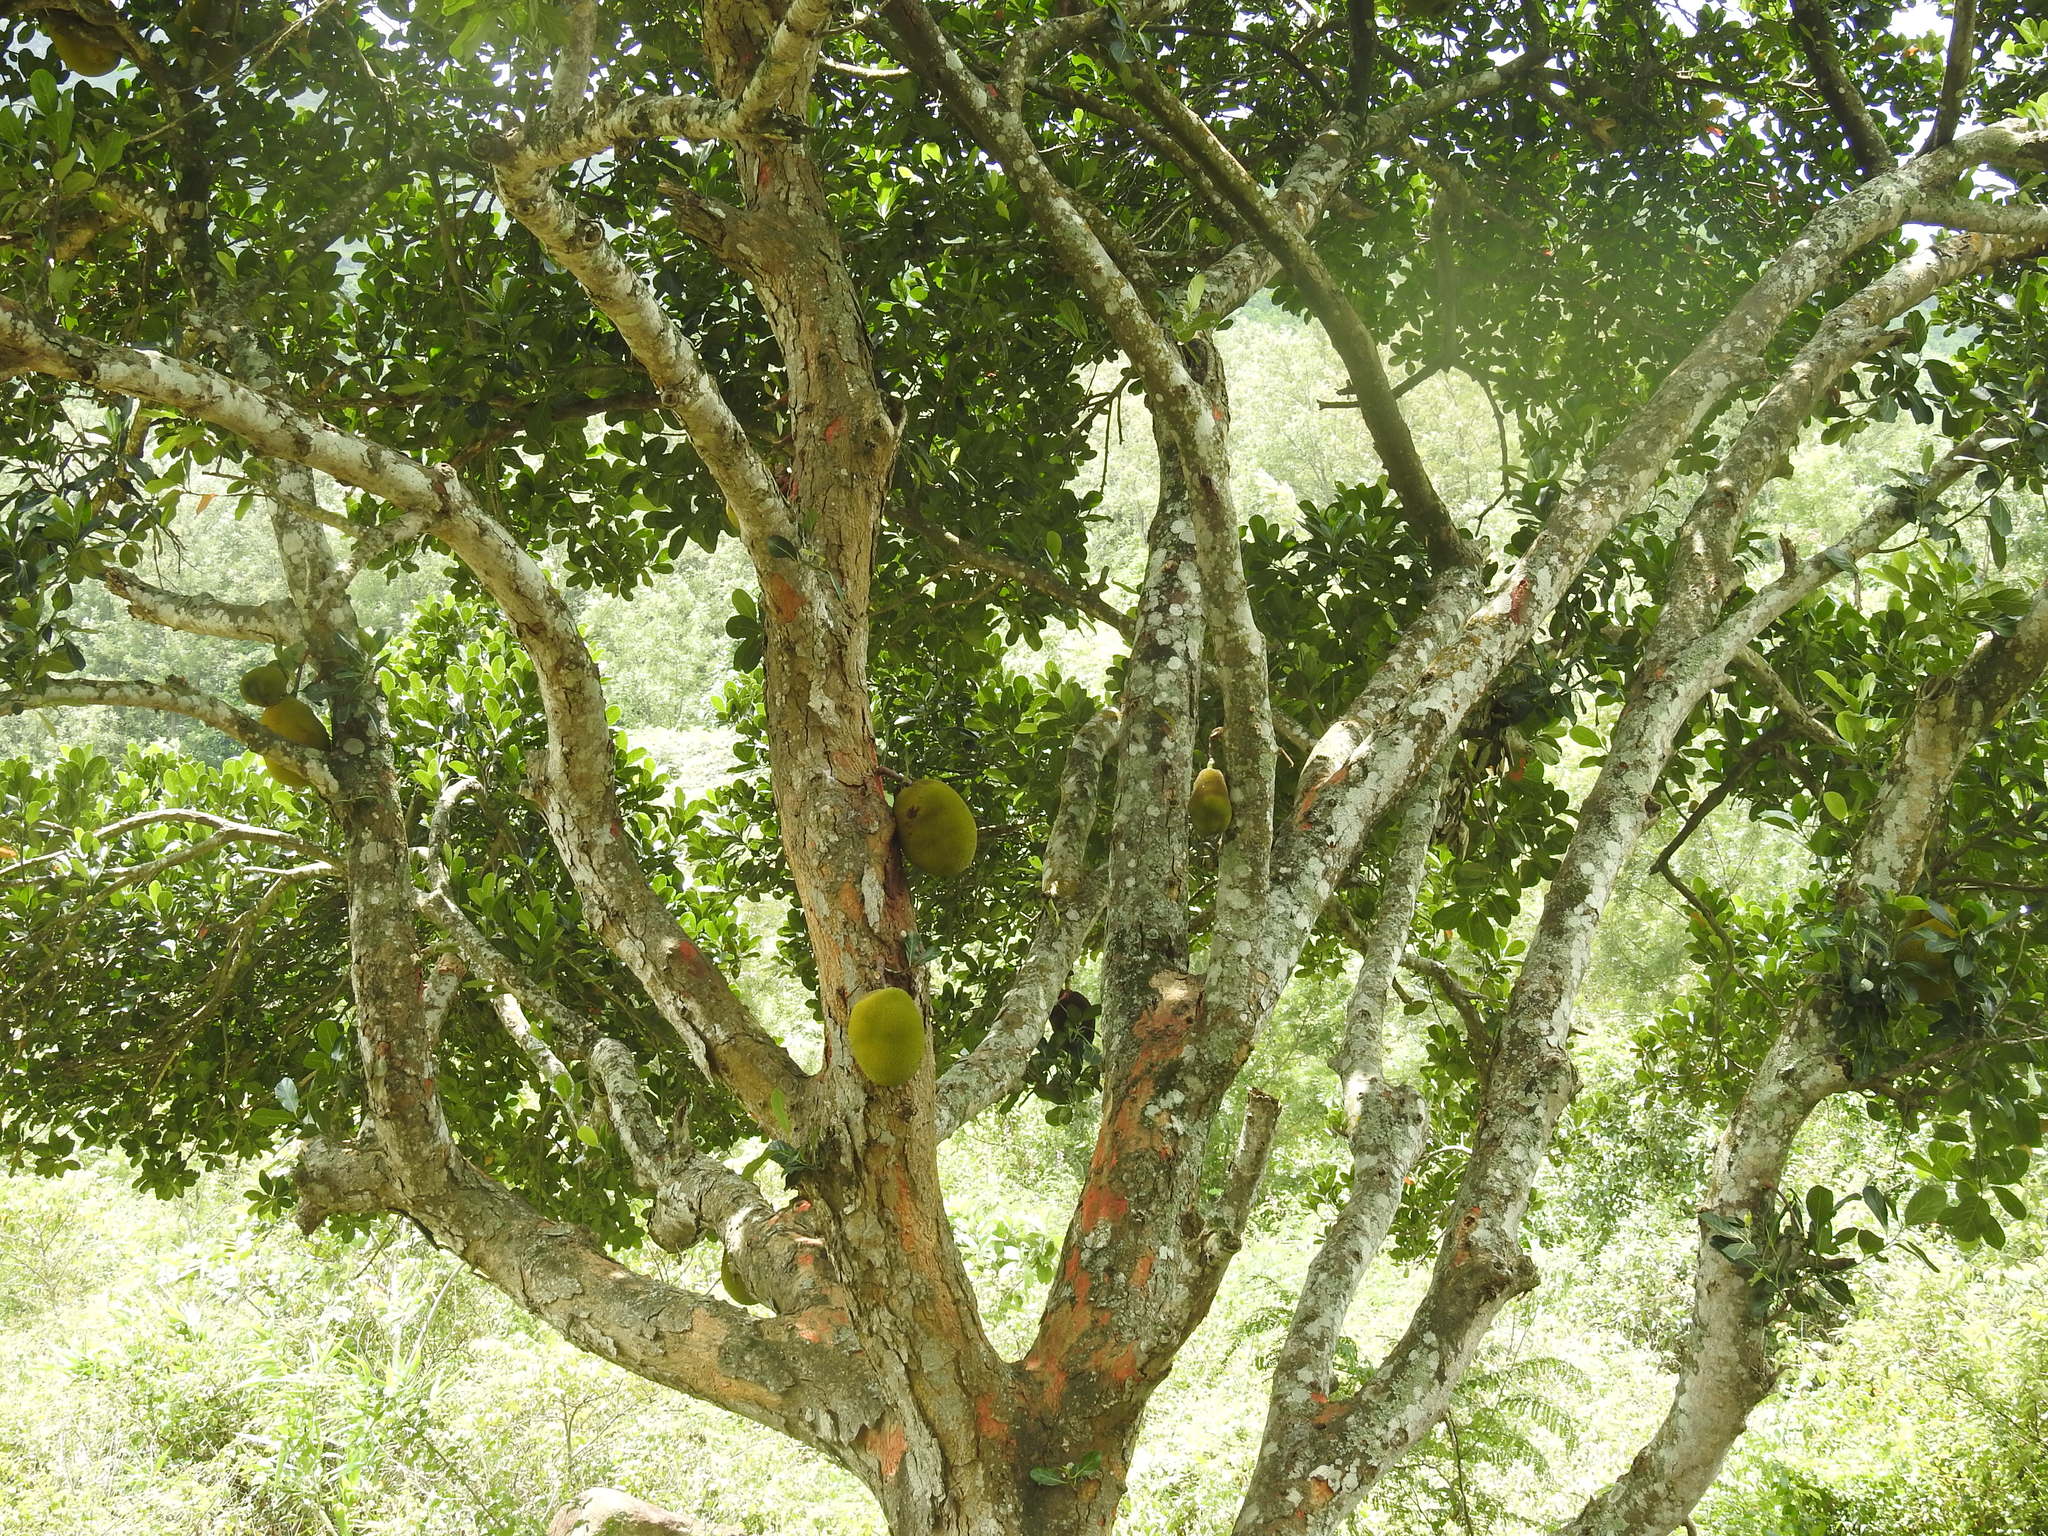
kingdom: Plantae
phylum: Tracheophyta
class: Magnoliopsida
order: Rosales
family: Moraceae
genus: Artocarpus
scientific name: Artocarpus heterophyllus
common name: Jackfruit
